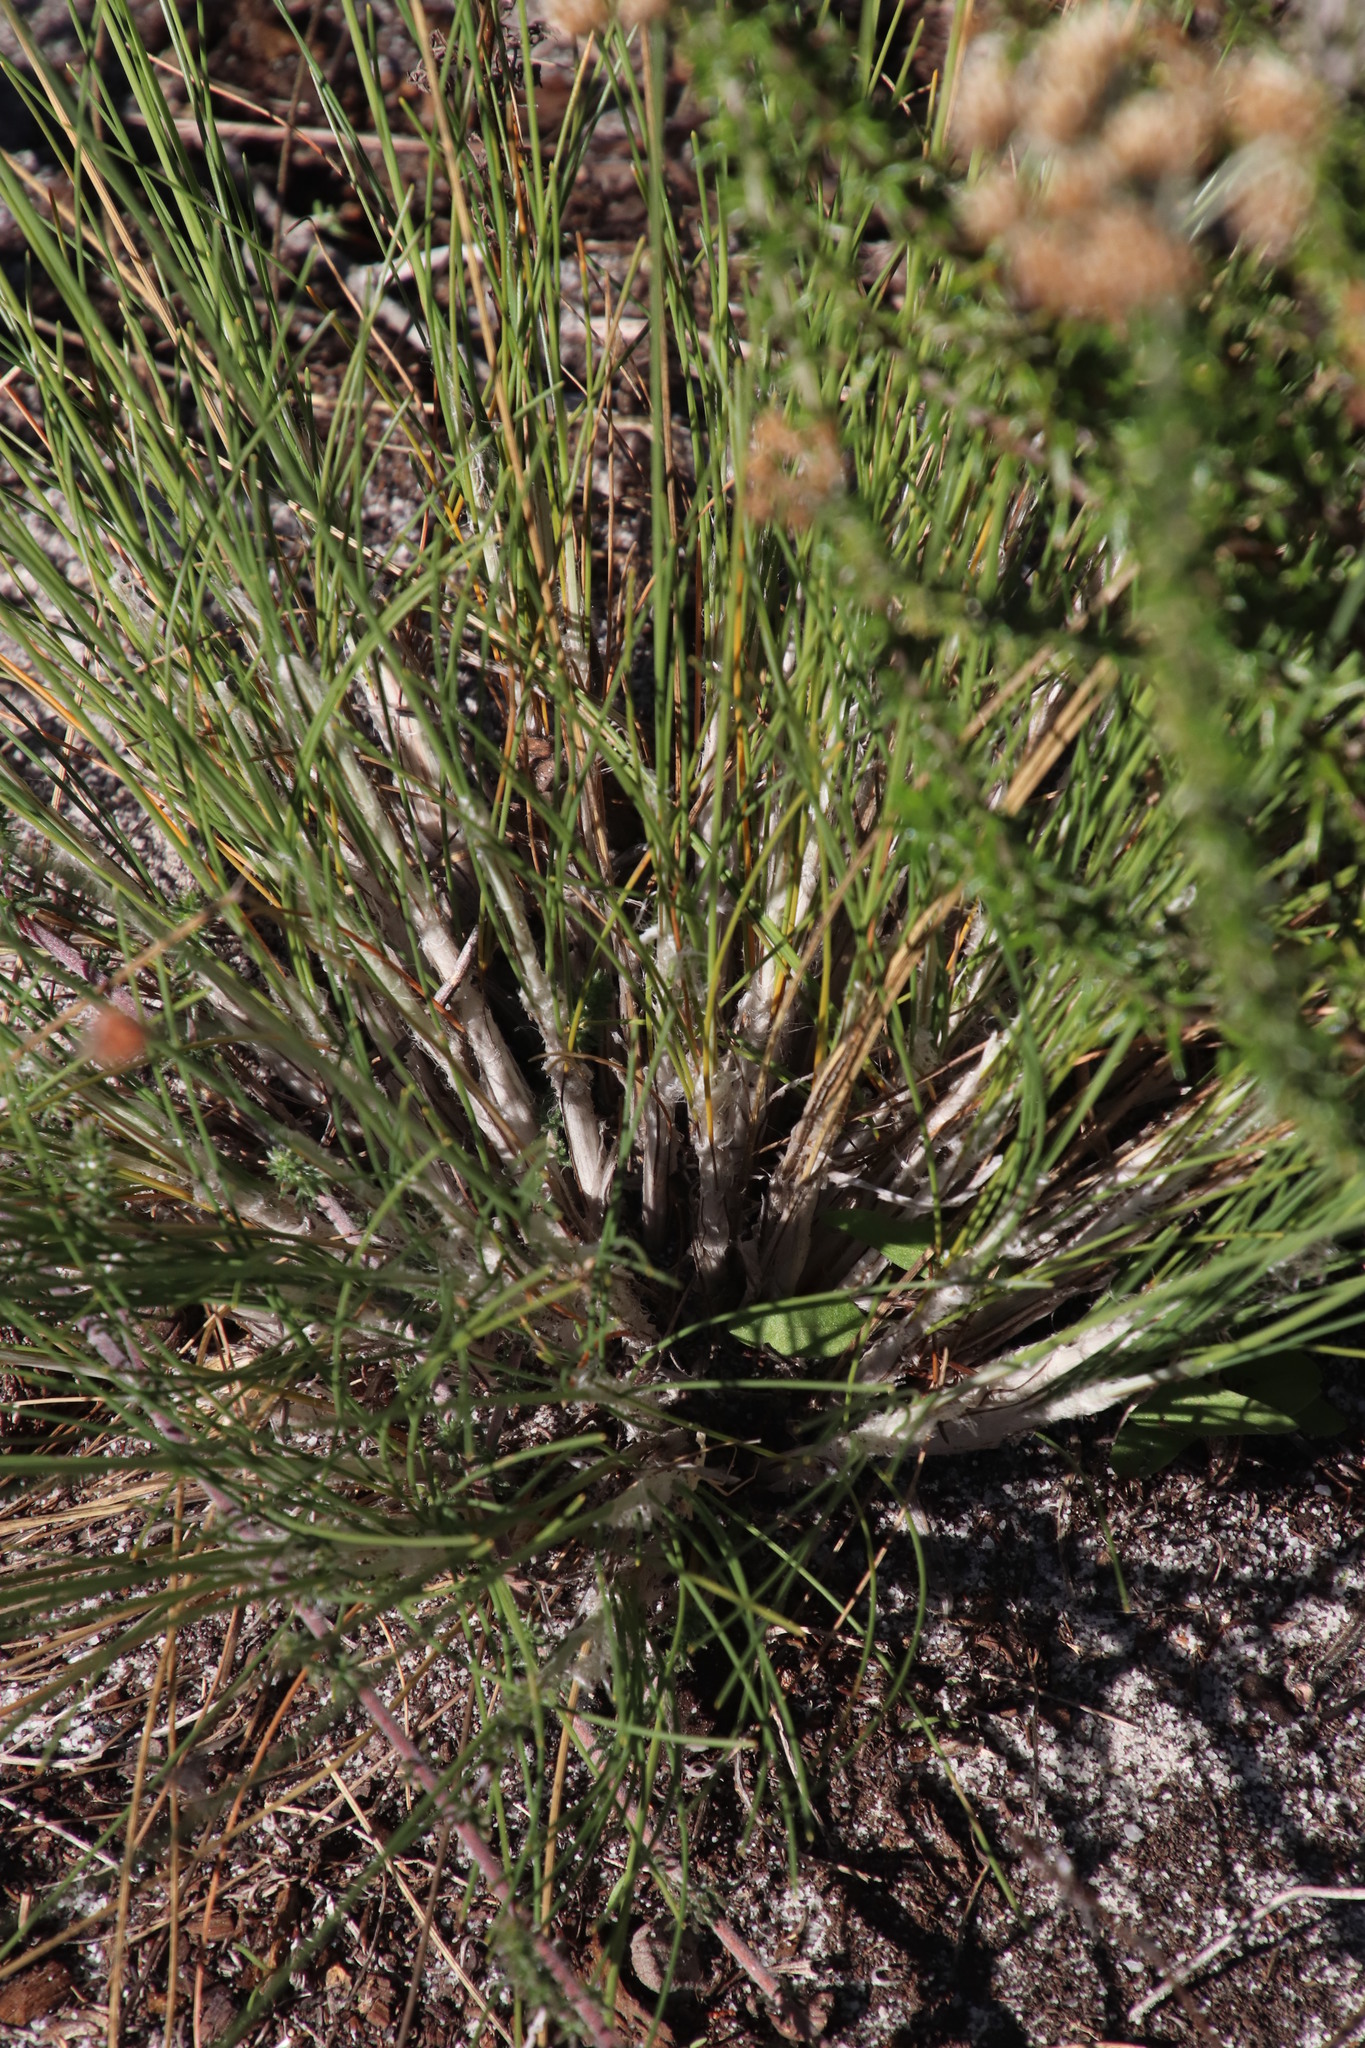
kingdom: Plantae
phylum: Tracheophyta
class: Liliopsida
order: Poales
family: Cyperaceae
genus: Ficinia
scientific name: Ficinia paradoxa
